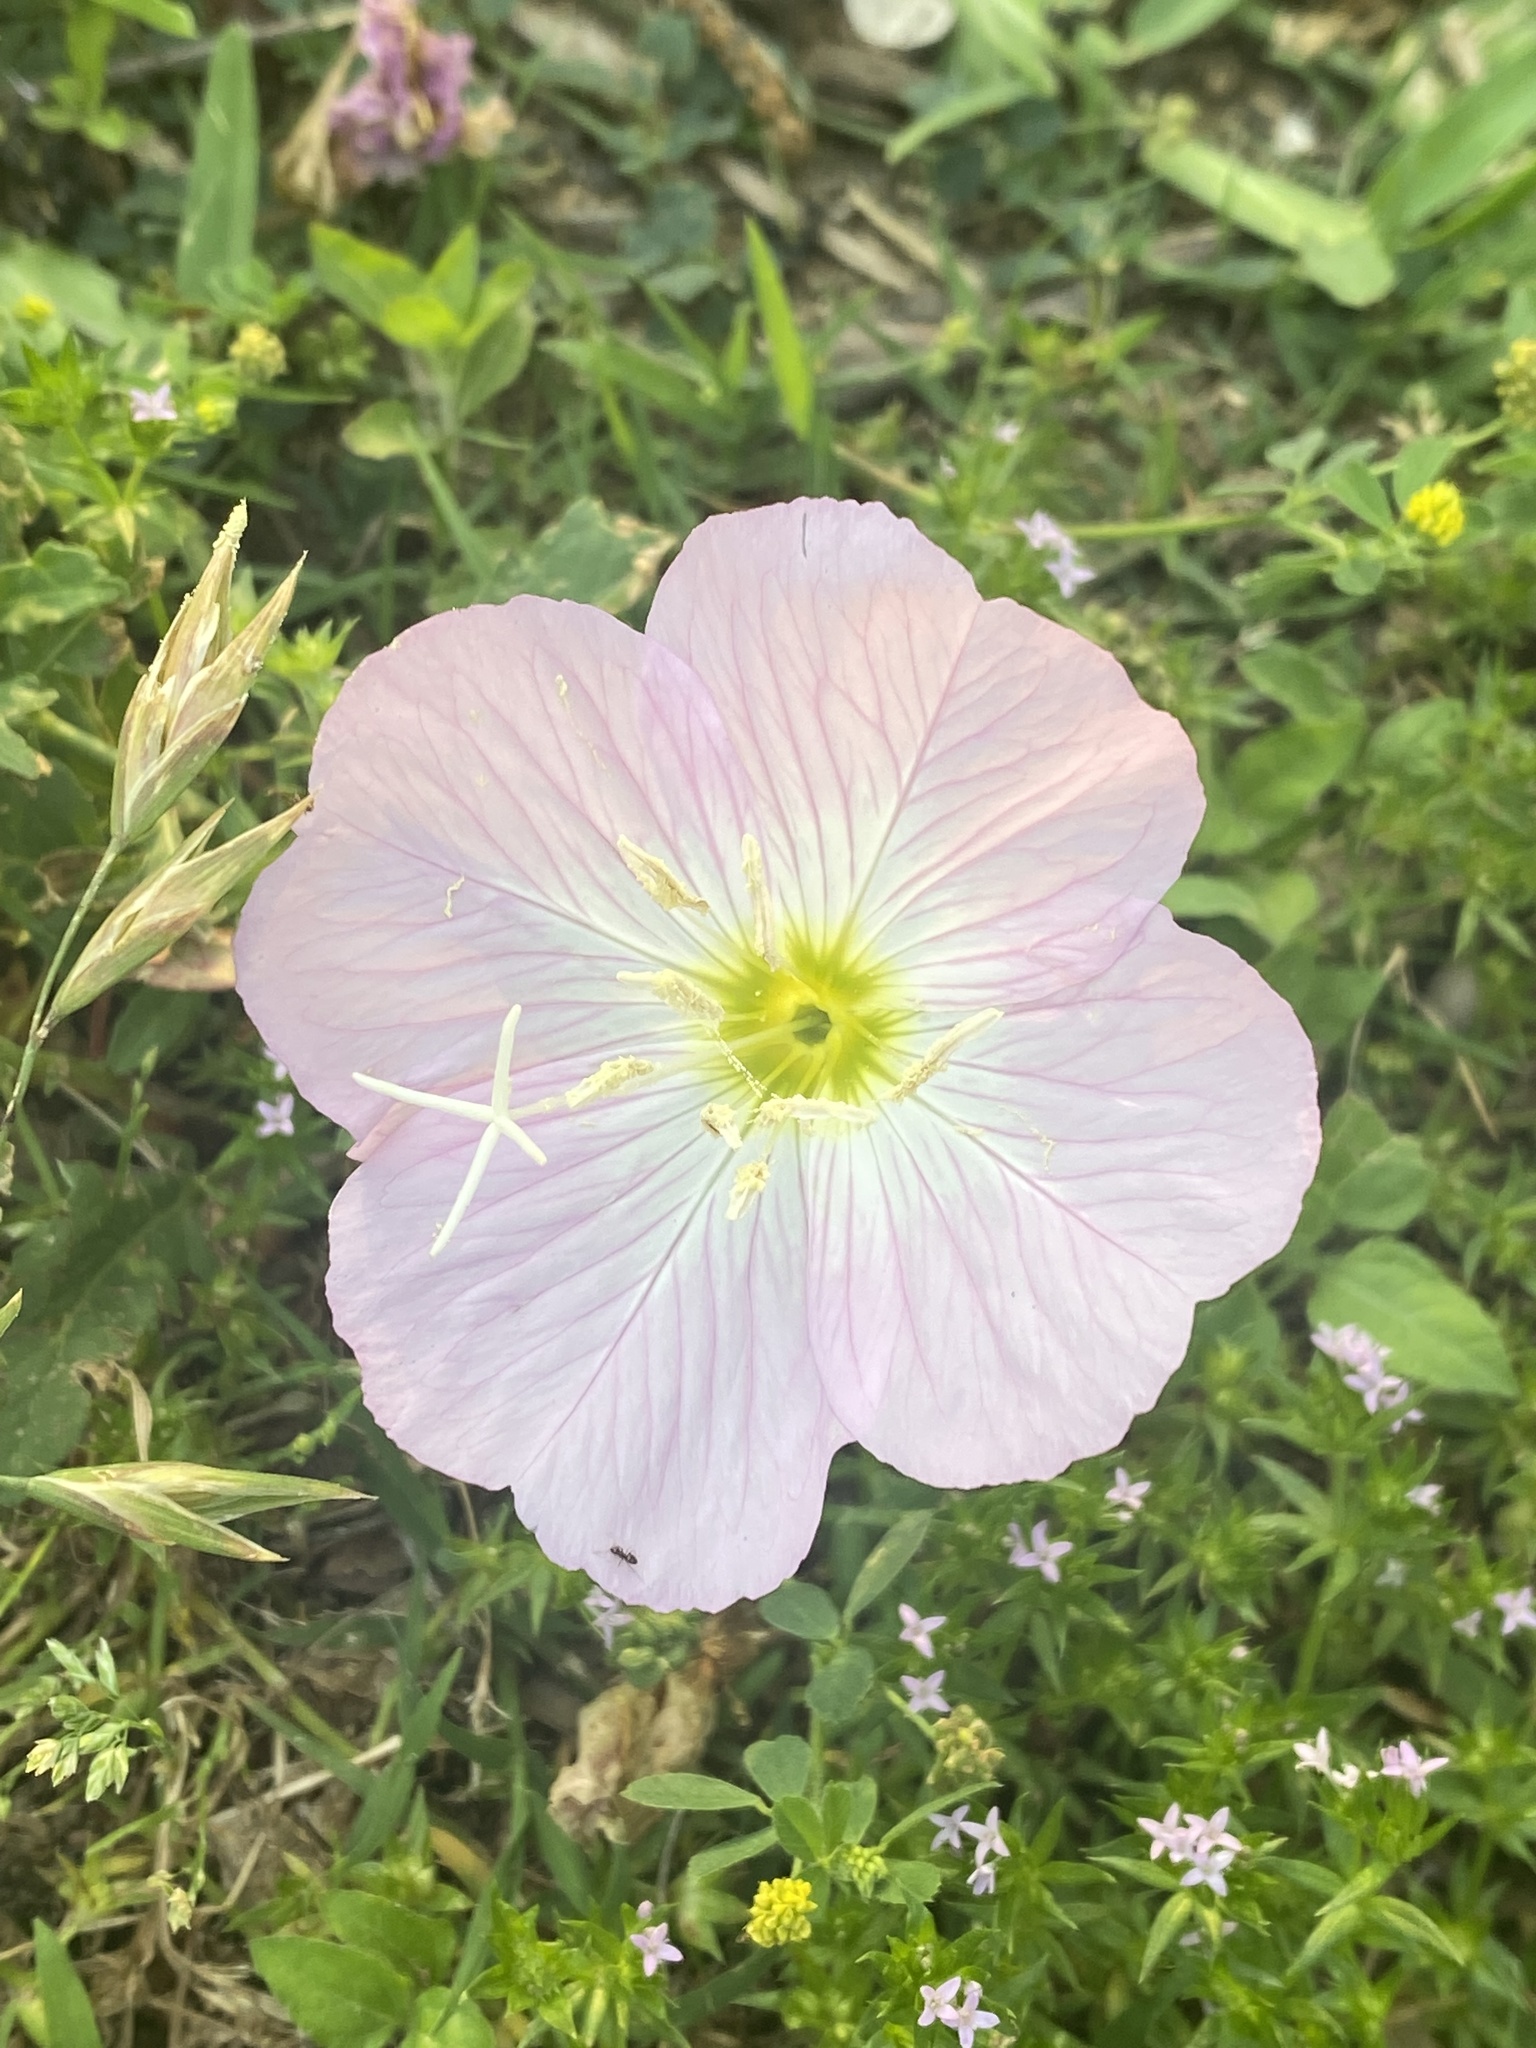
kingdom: Plantae
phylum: Tracheophyta
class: Magnoliopsida
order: Myrtales
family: Onagraceae
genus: Oenothera
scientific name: Oenothera speciosa
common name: White evening-primrose
